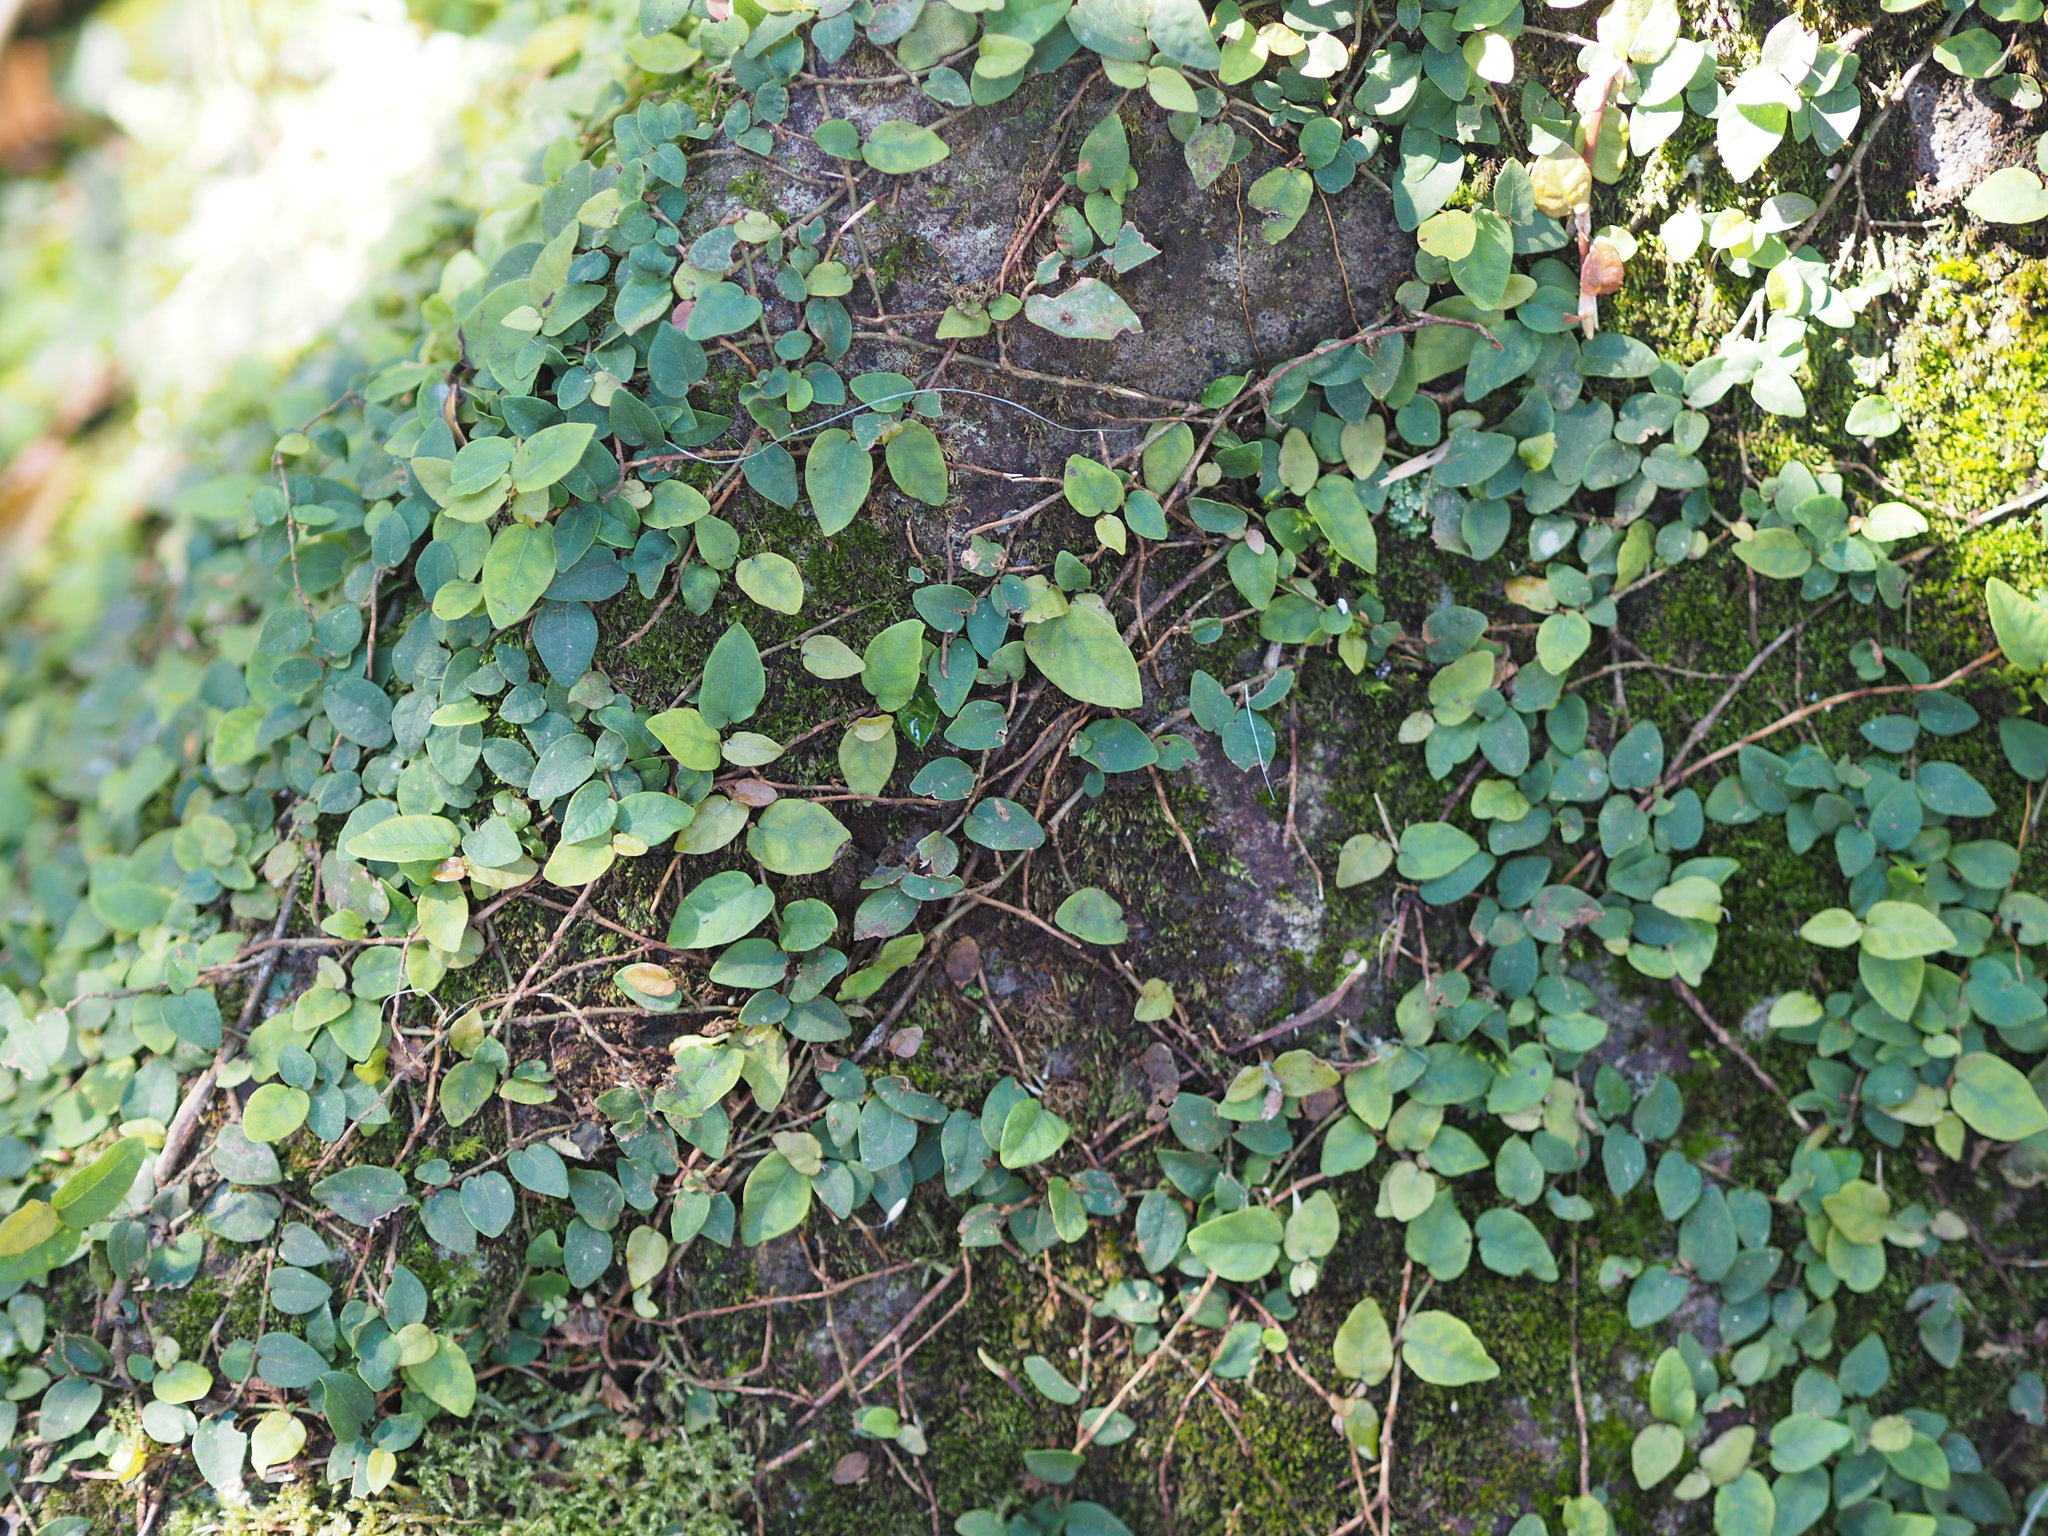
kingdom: Plantae
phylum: Tracheophyta
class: Magnoliopsida
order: Rosales
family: Moraceae
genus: Ficus
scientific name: Ficus pumila
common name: Climbingfig
